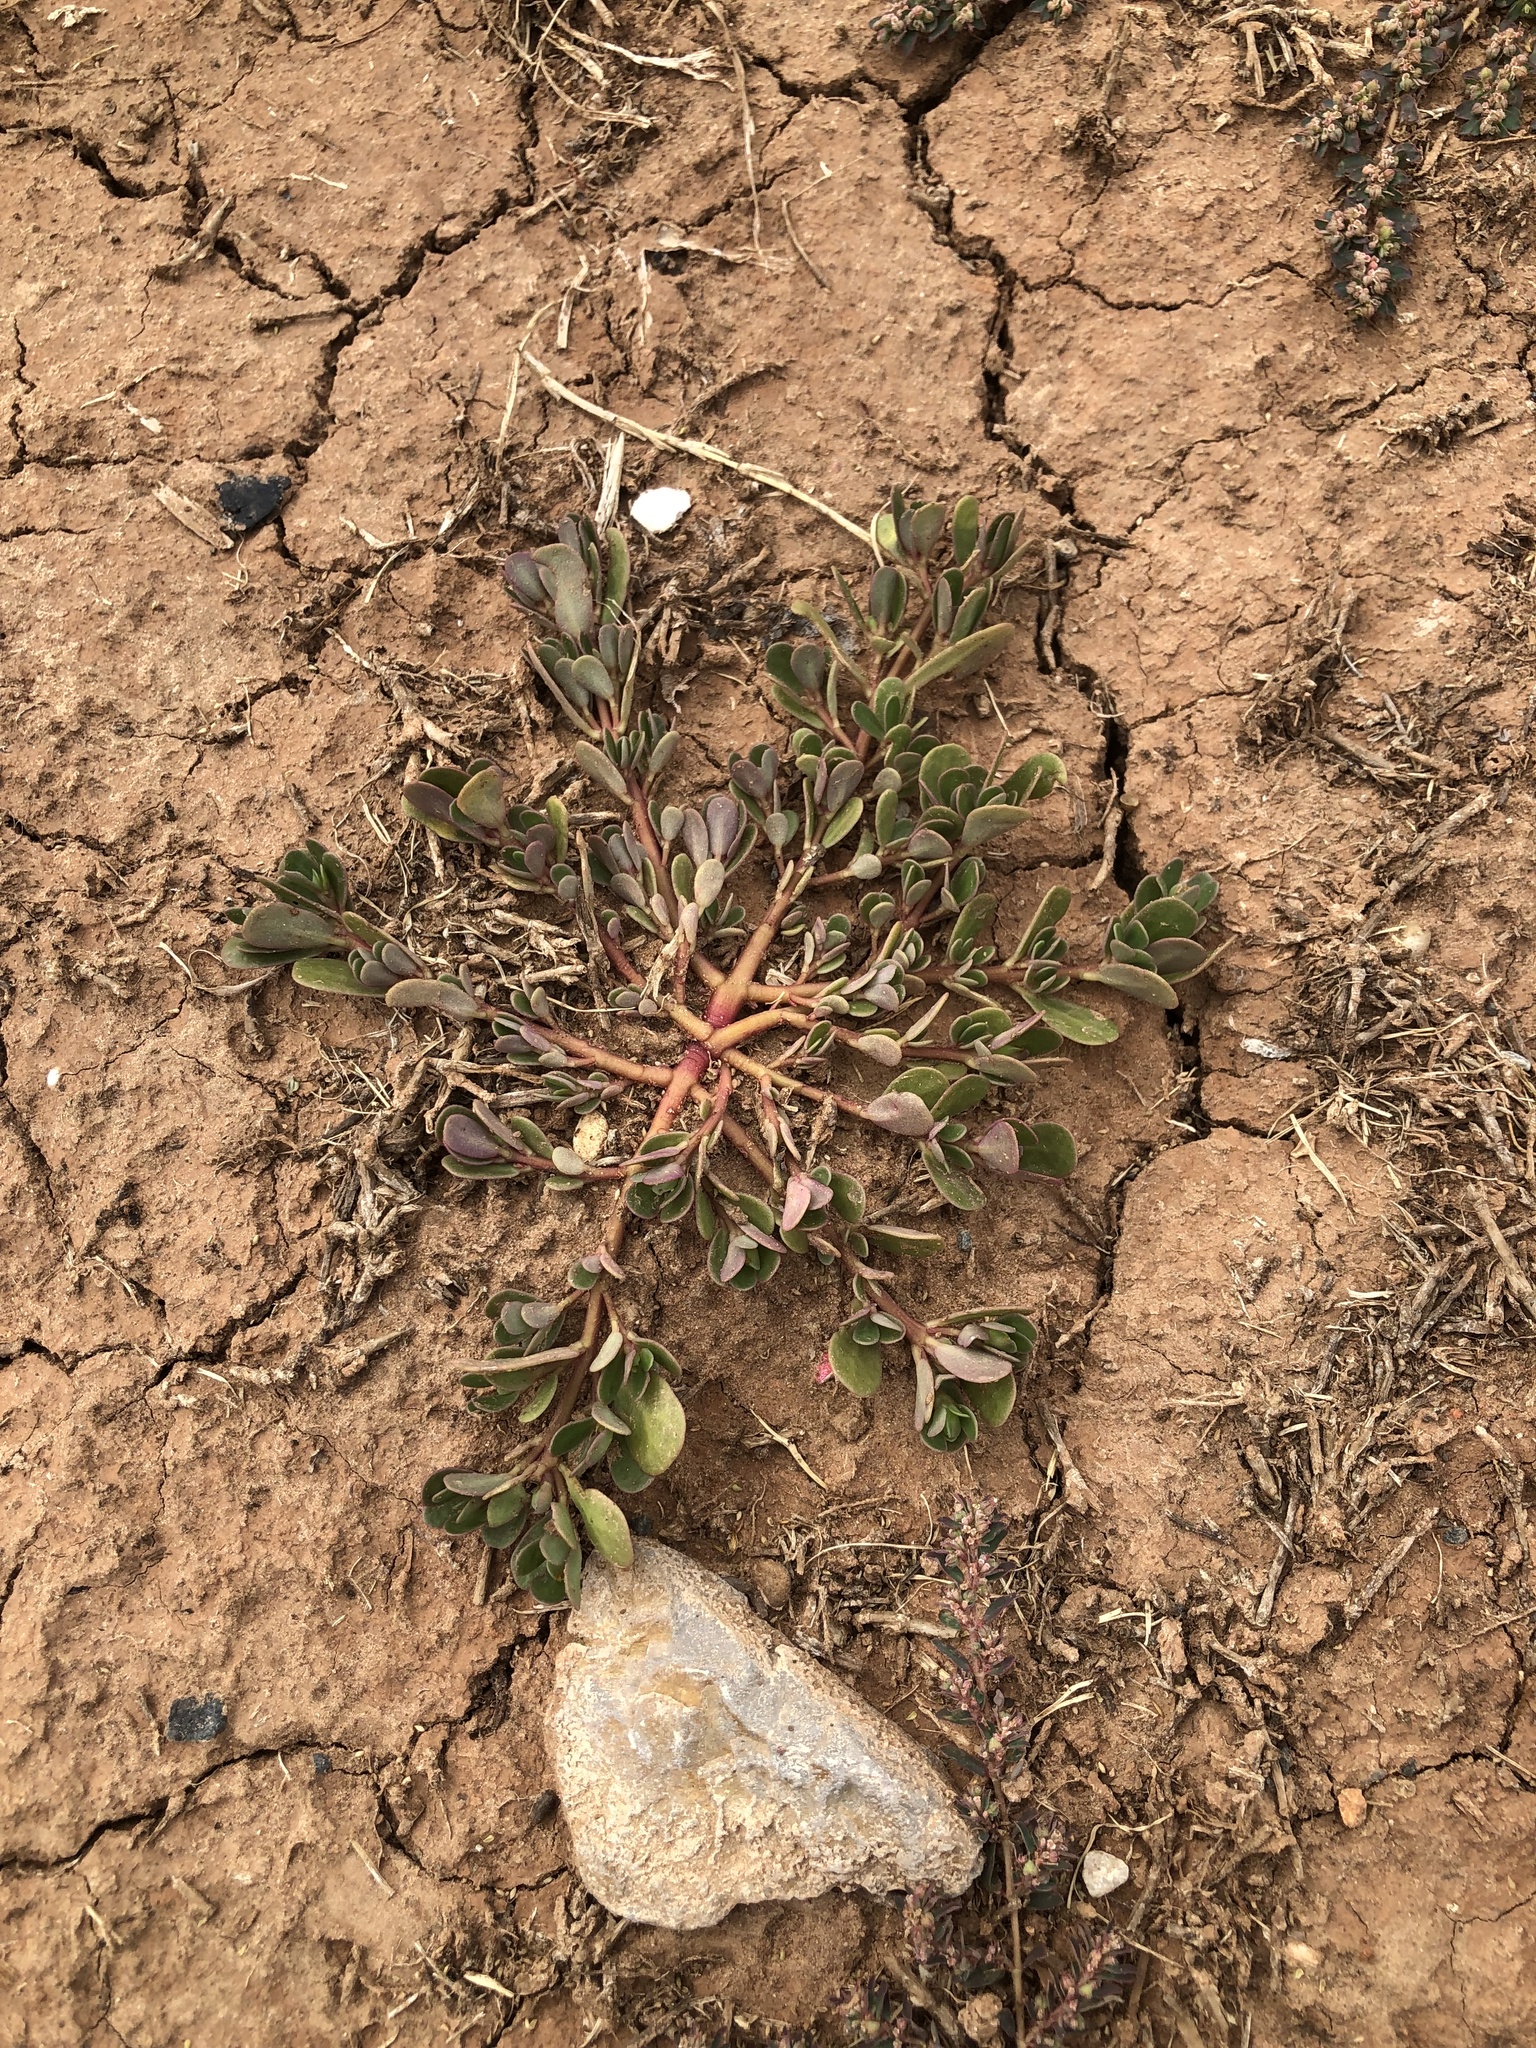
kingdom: Plantae
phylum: Tracheophyta
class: Magnoliopsida
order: Caryophyllales
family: Portulacaceae
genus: Portulaca
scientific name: Portulaca oleracea
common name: Common purslane
